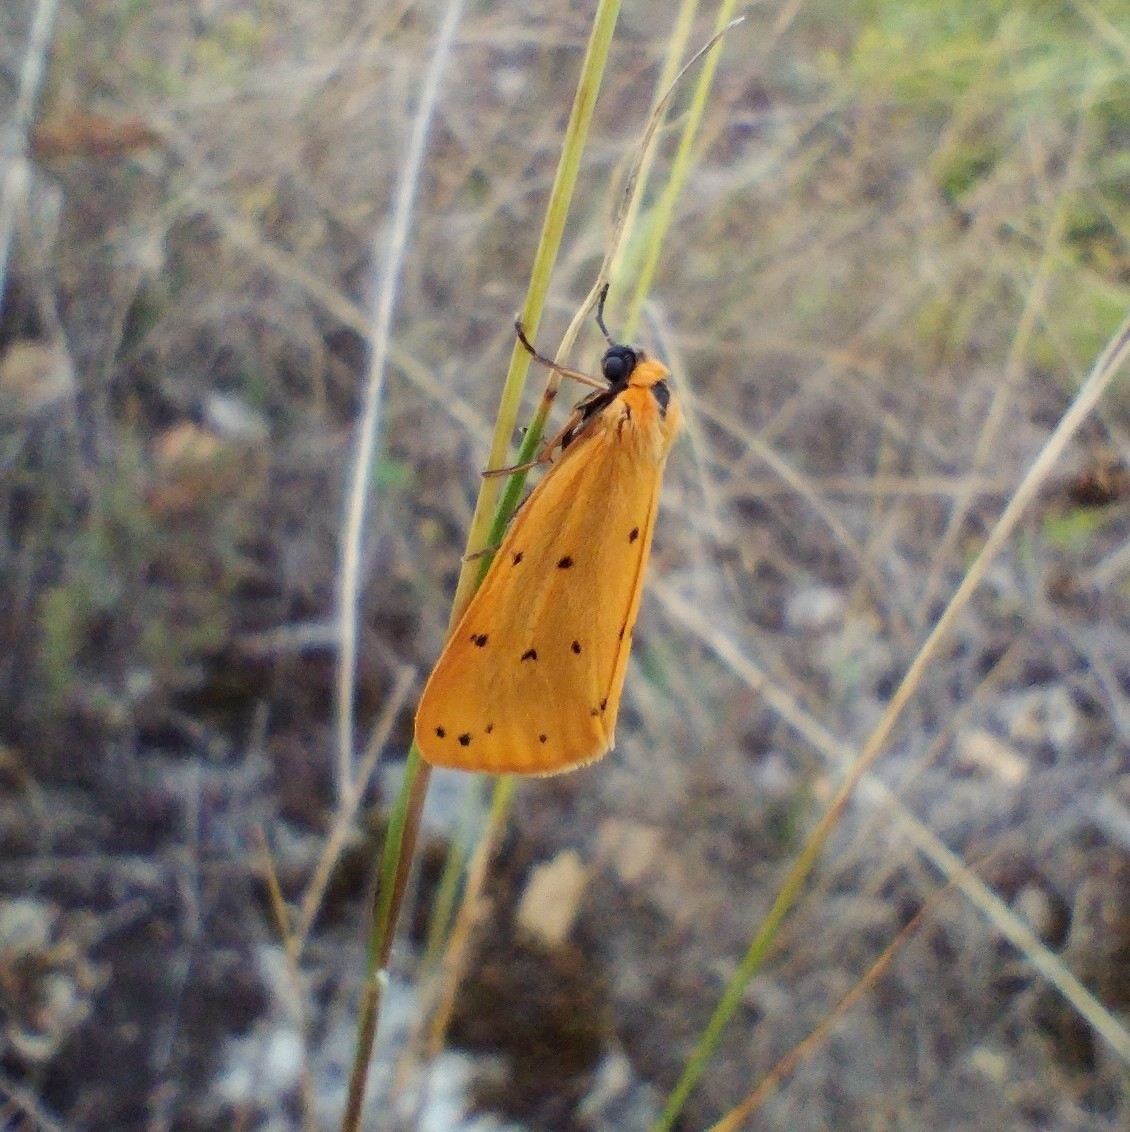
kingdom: Animalia
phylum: Arthropoda
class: Insecta
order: Lepidoptera
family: Erebidae
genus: Setina
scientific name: Setina roscida
